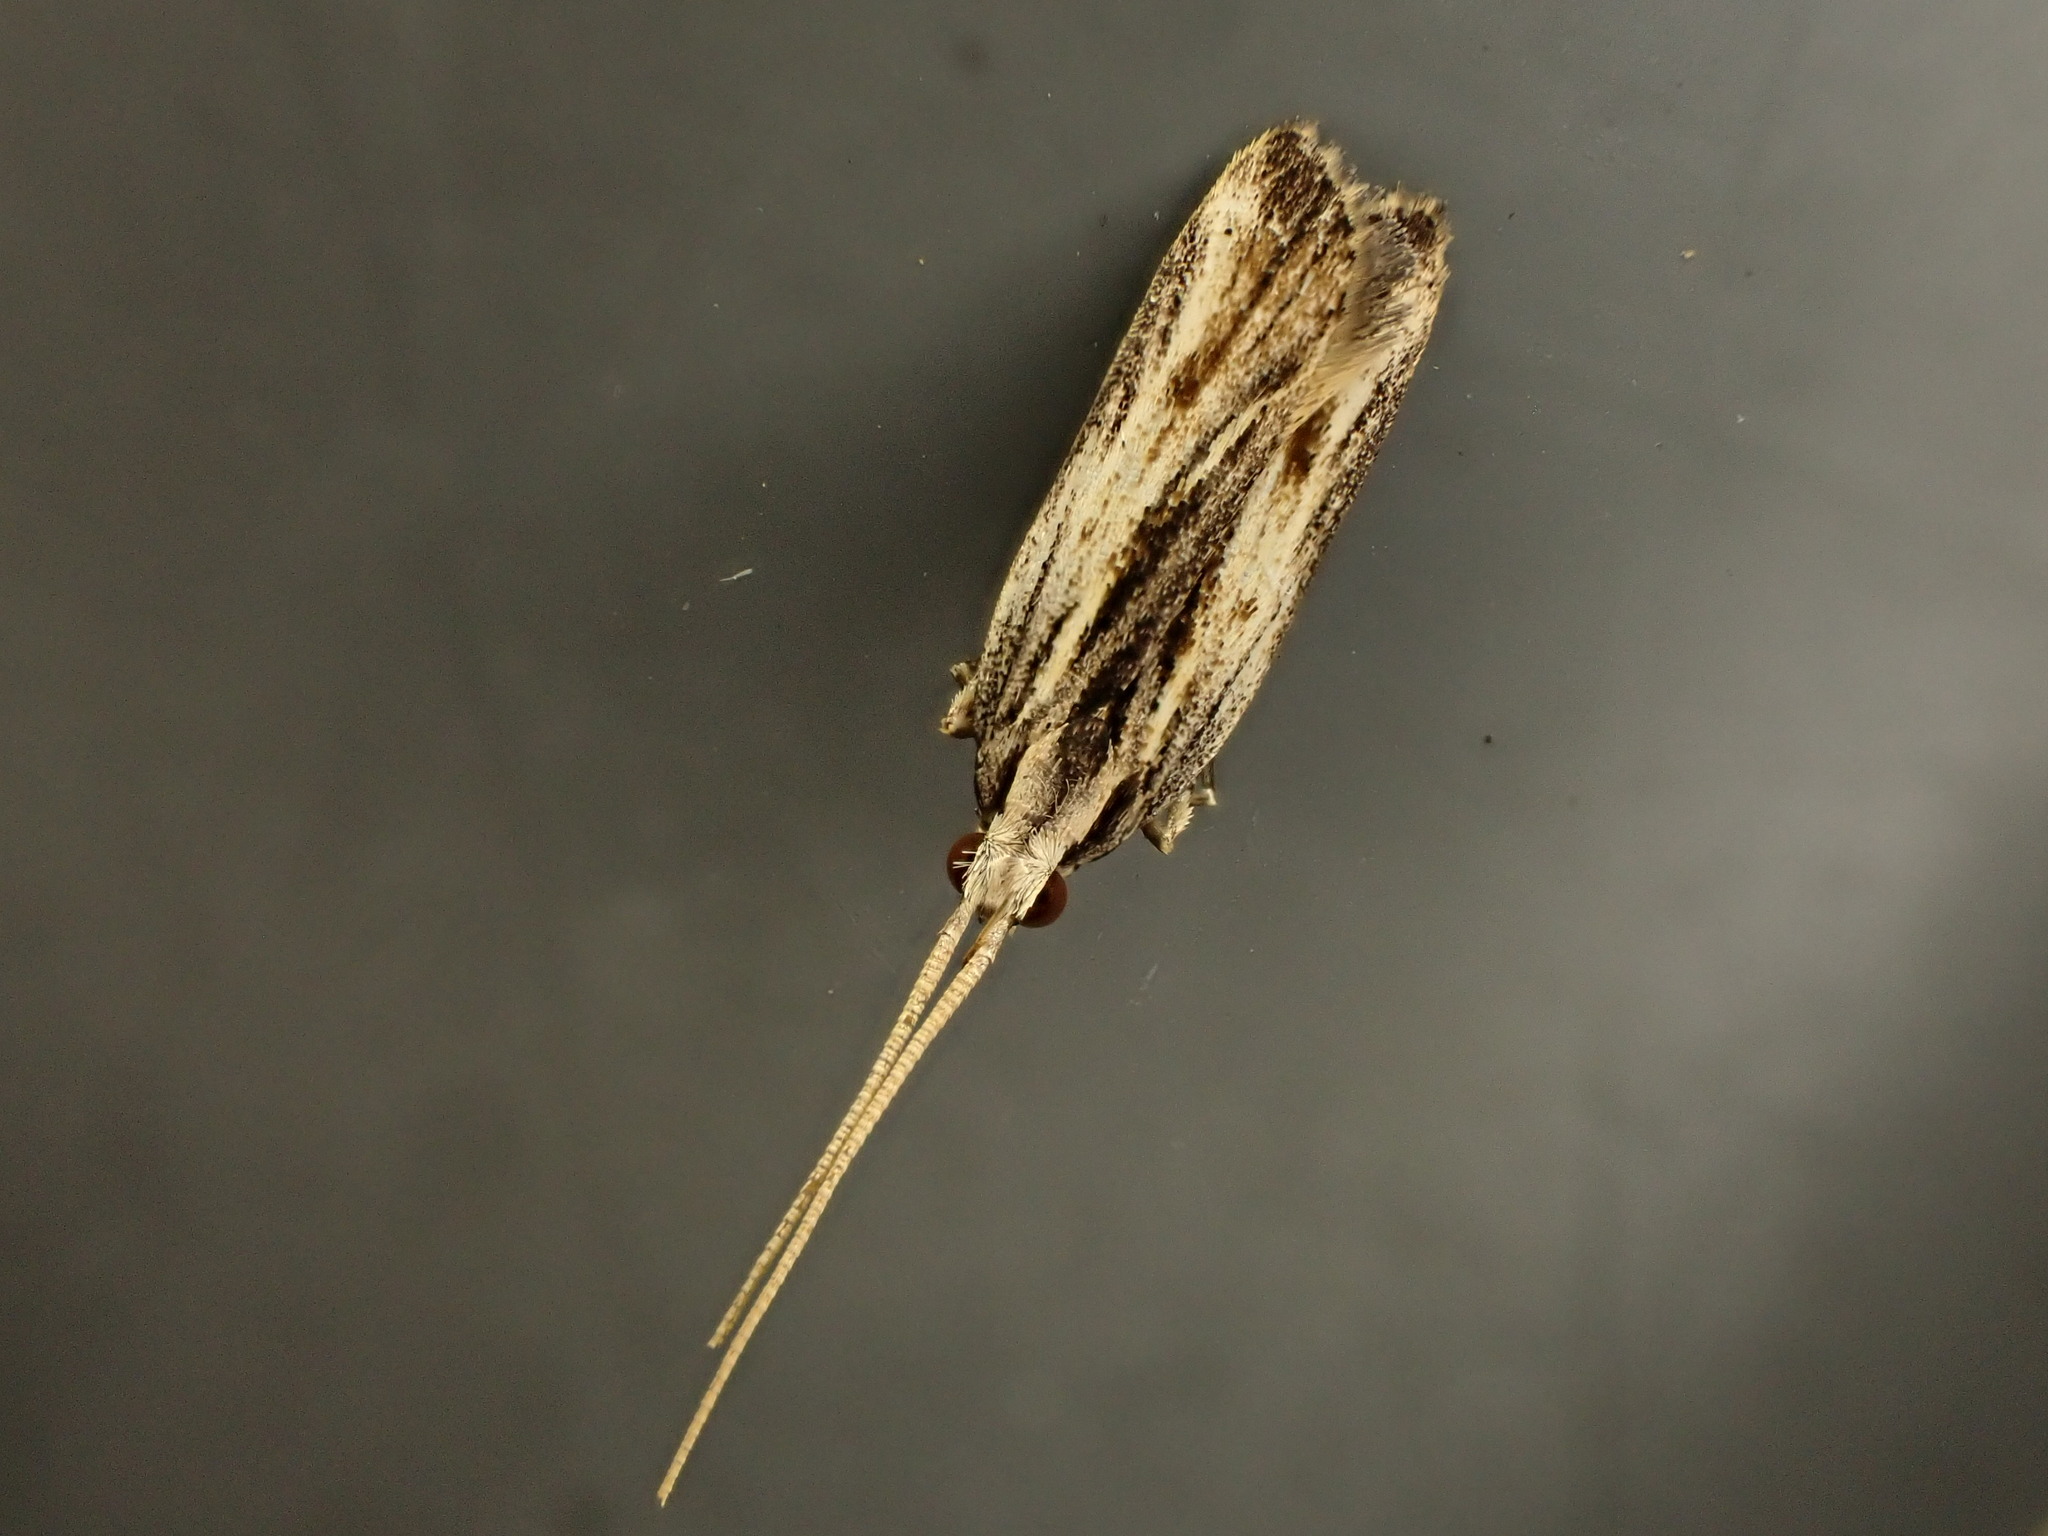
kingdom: Animalia
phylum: Arthropoda
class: Insecta
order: Lepidoptera
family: Lecithoceridae
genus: Sarisophora
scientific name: Sarisophora leucoscia
